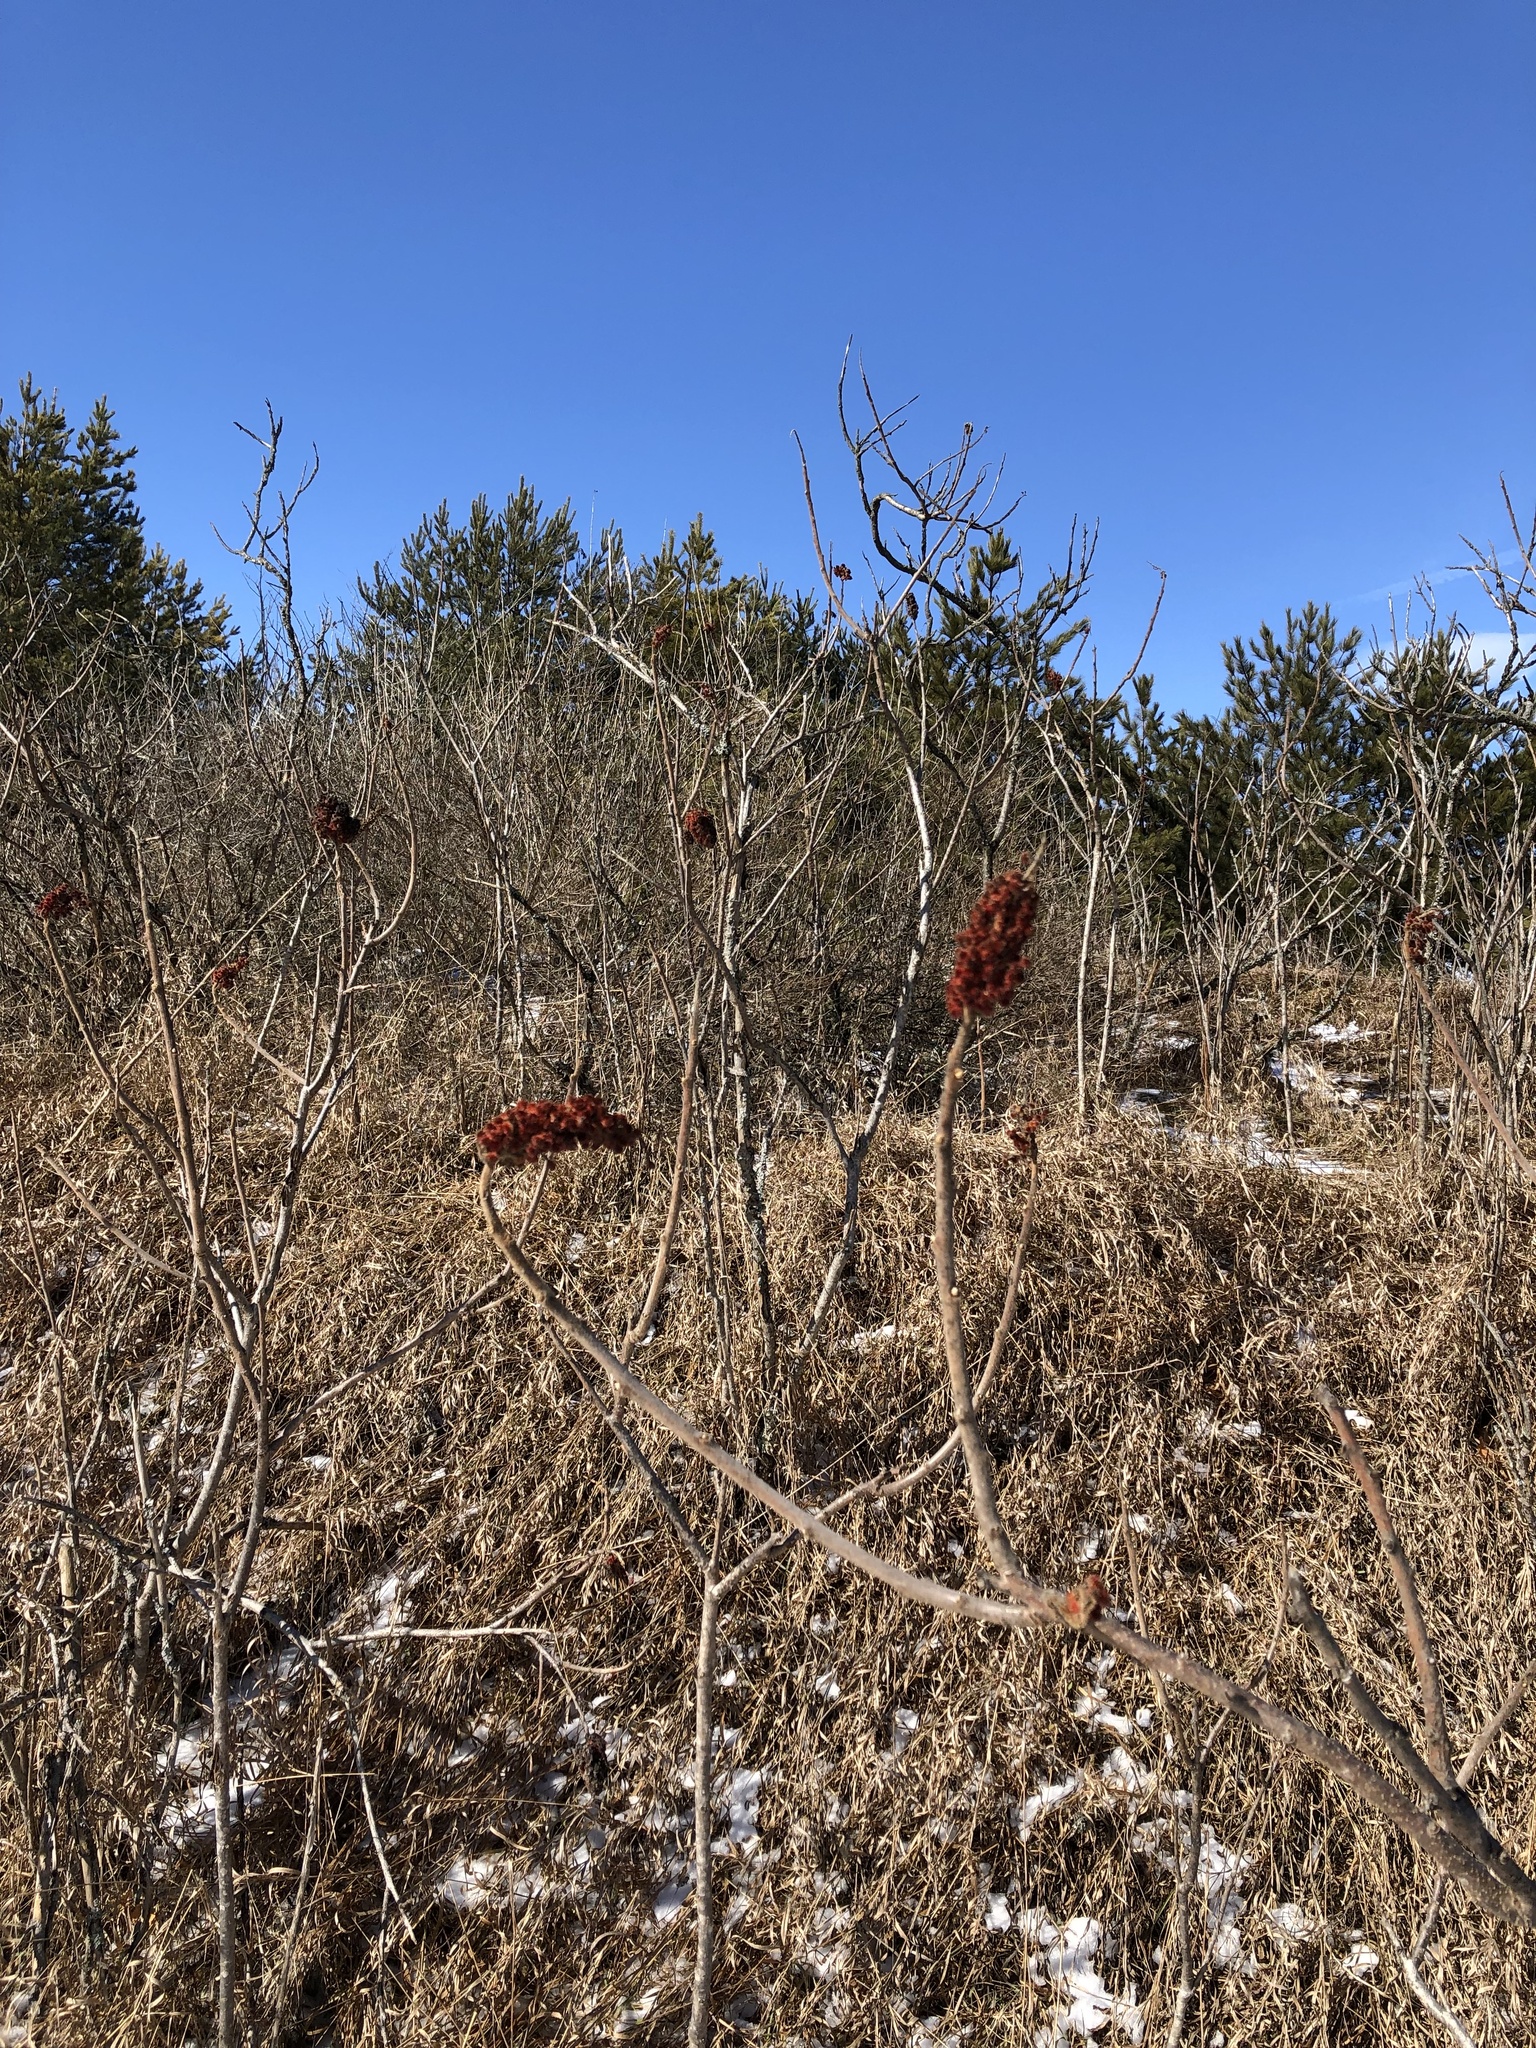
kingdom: Plantae
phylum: Tracheophyta
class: Magnoliopsida
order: Sapindales
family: Anacardiaceae
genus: Rhus
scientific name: Rhus typhina
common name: Staghorn sumac
